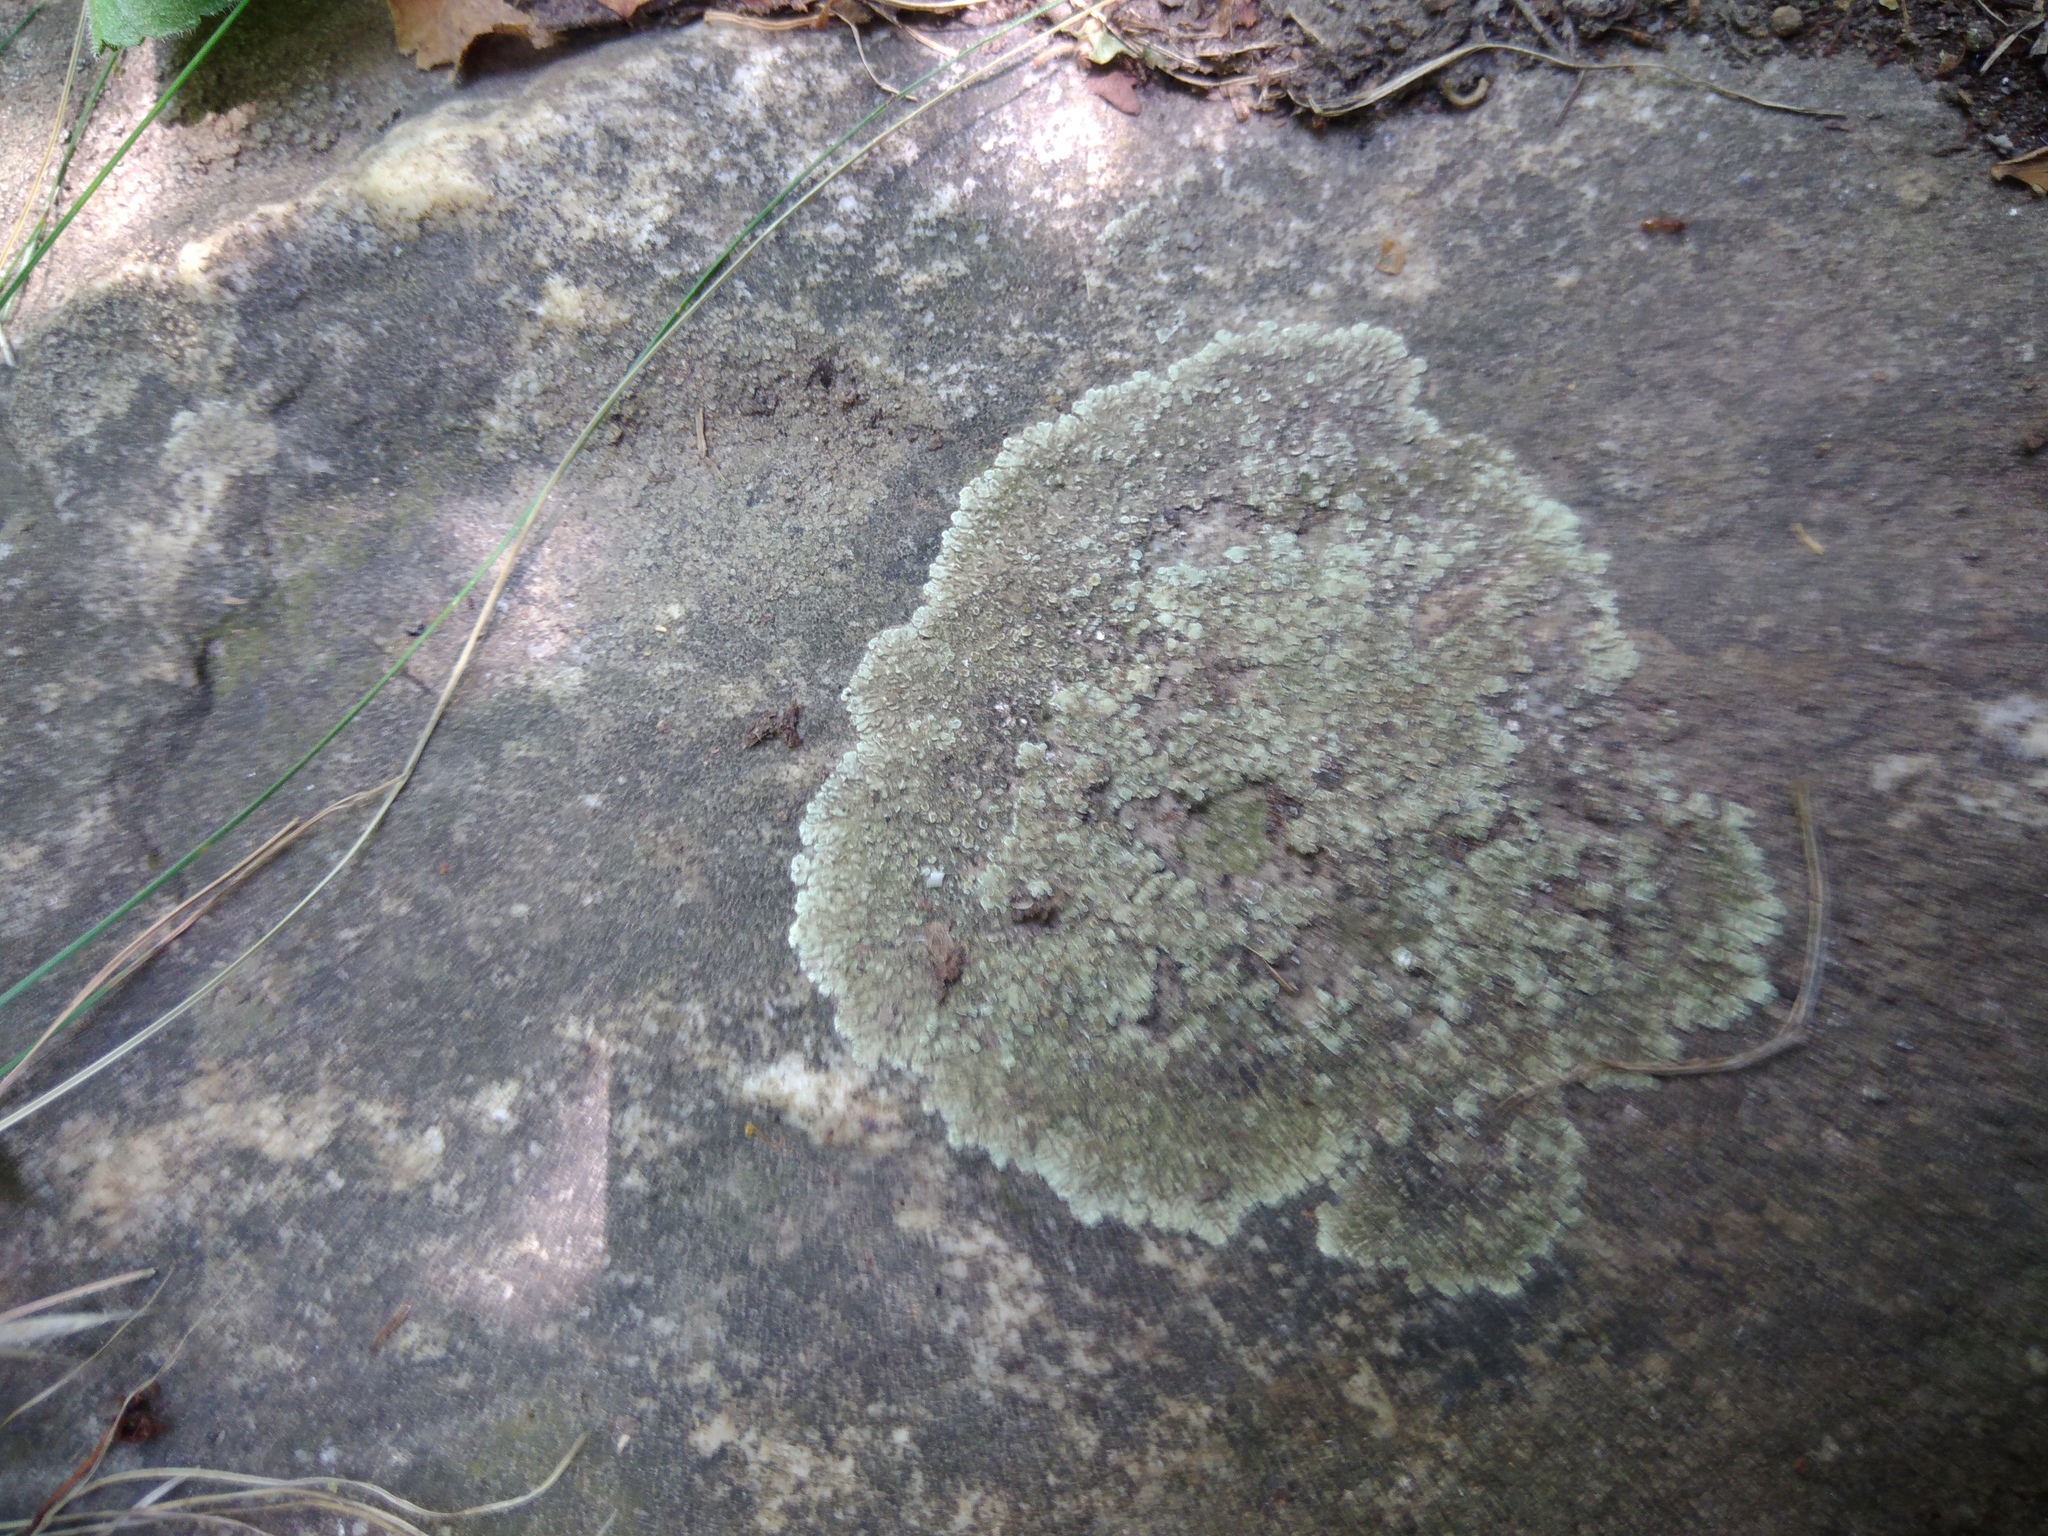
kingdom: Fungi
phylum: Ascomycota
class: Lecanoromycetes
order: Lecanorales
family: Lecanoraceae
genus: Protoparmeliopsis
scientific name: Protoparmeliopsis muralis
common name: Stonewall rim lichen
